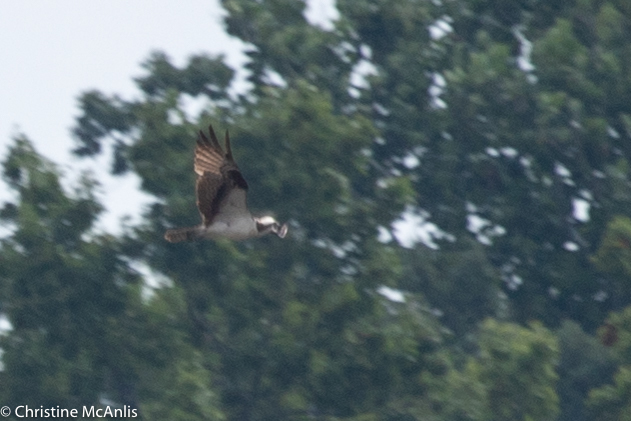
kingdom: Animalia
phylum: Chordata
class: Aves
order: Accipitriformes
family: Pandionidae
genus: Pandion
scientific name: Pandion haliaetus
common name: Osprey
